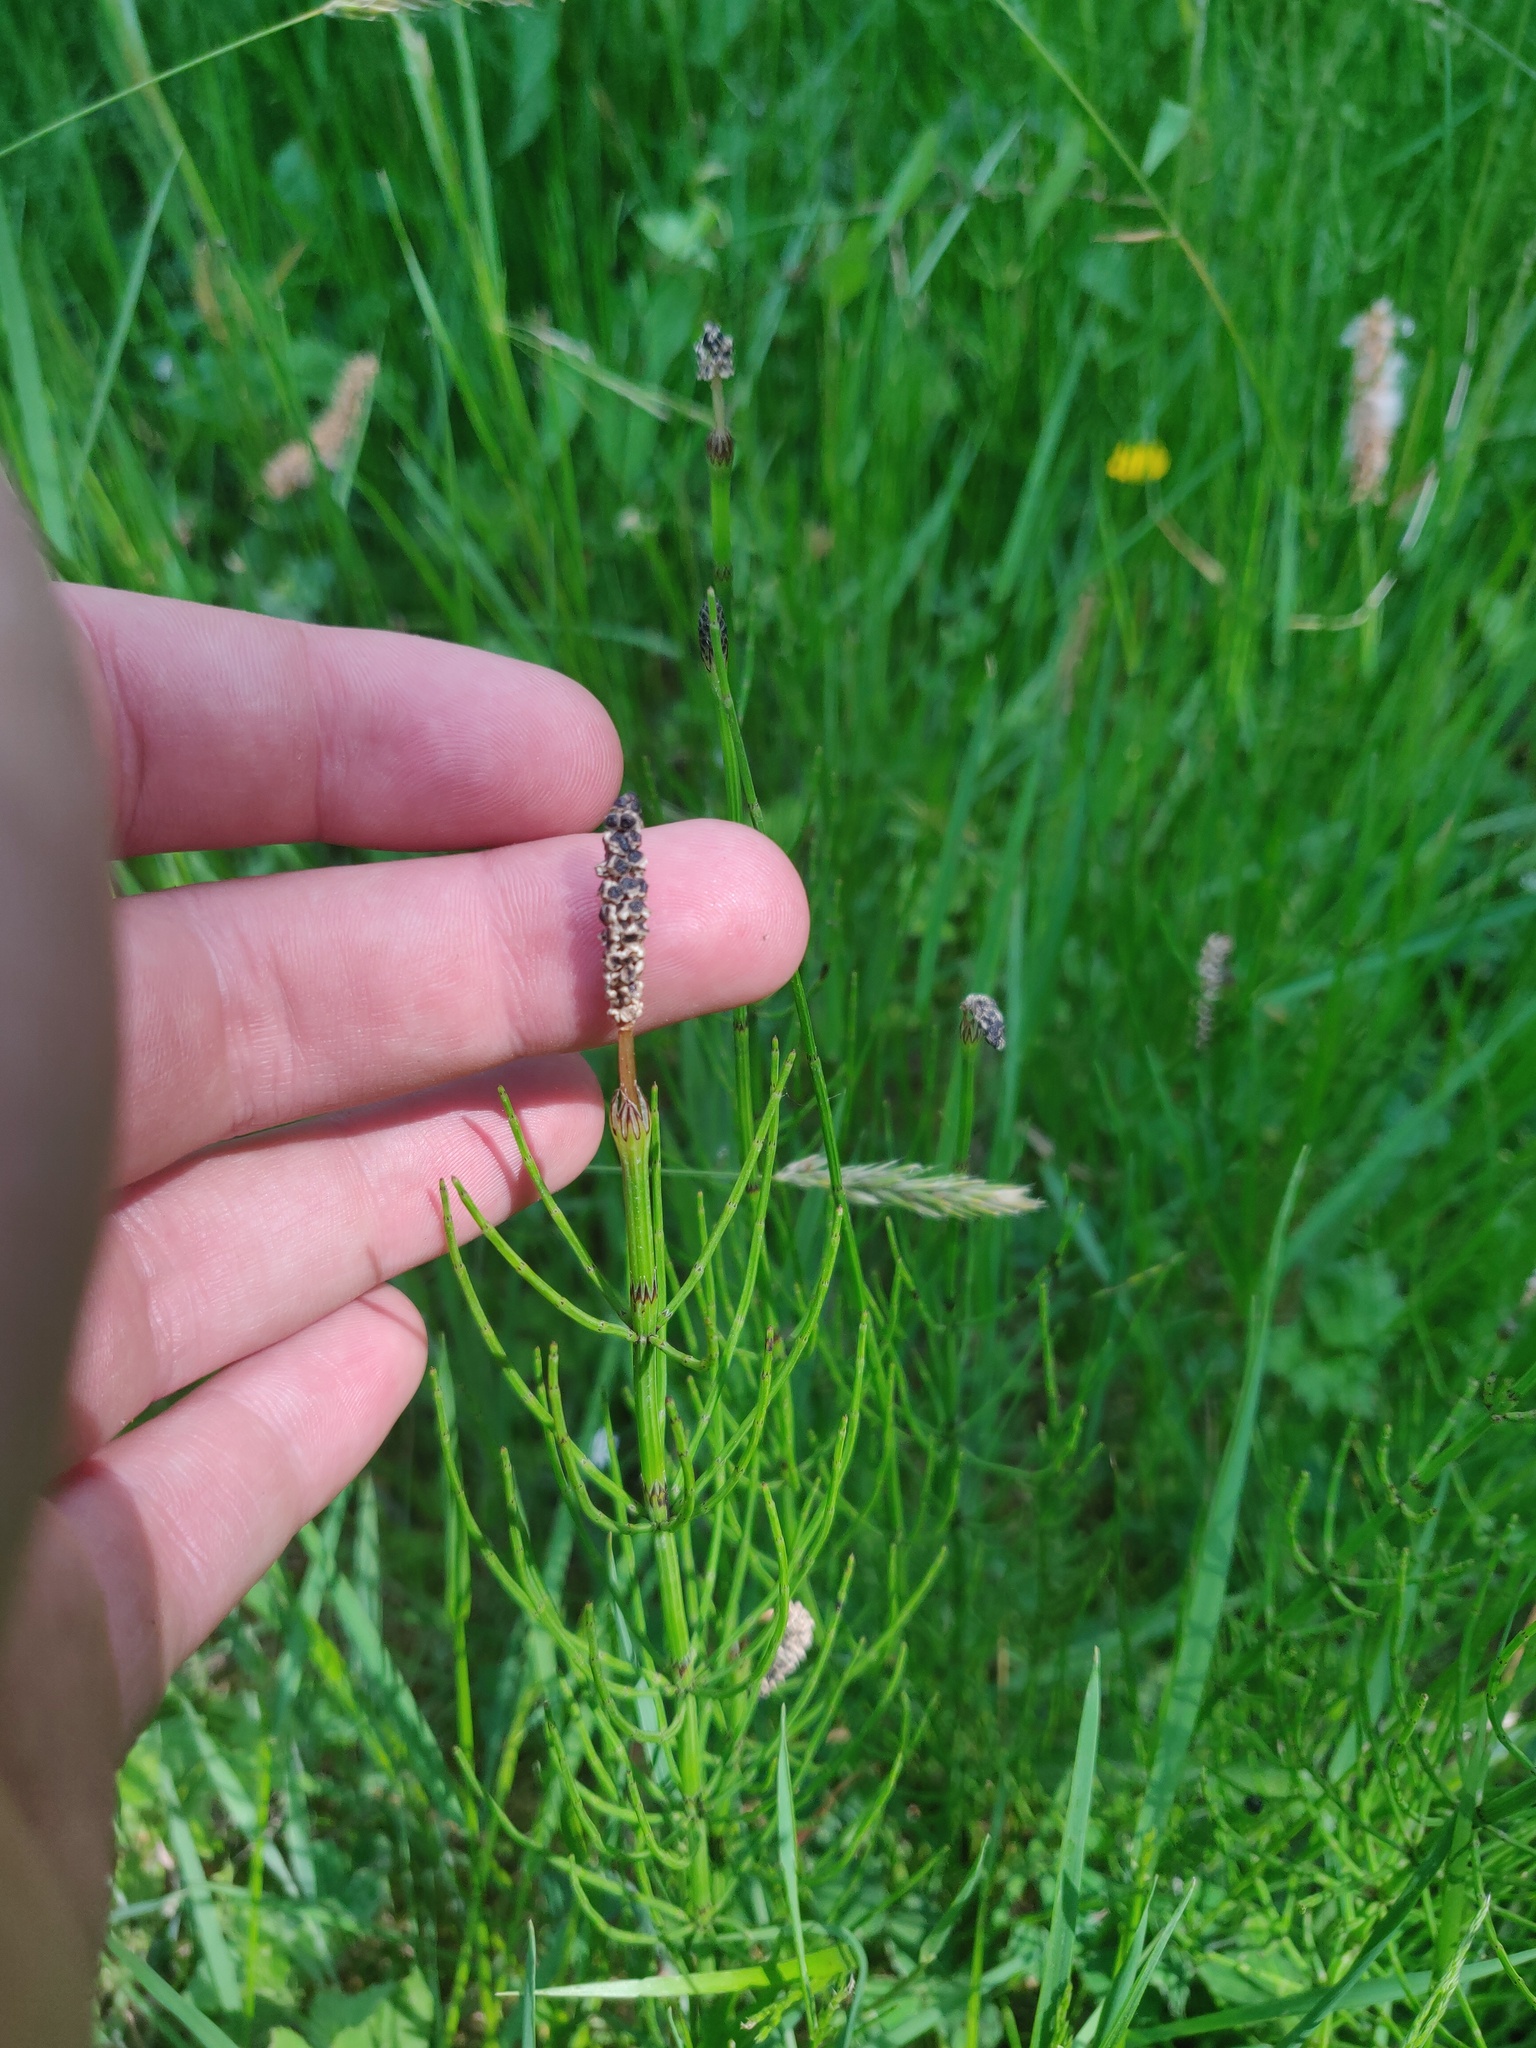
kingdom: Plantae
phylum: Tracheophyta
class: Polypodiopsida
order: Equisetales
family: Equisetaceae
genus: Equisetum
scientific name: Equisetum palustre
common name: Marsh horsetail
